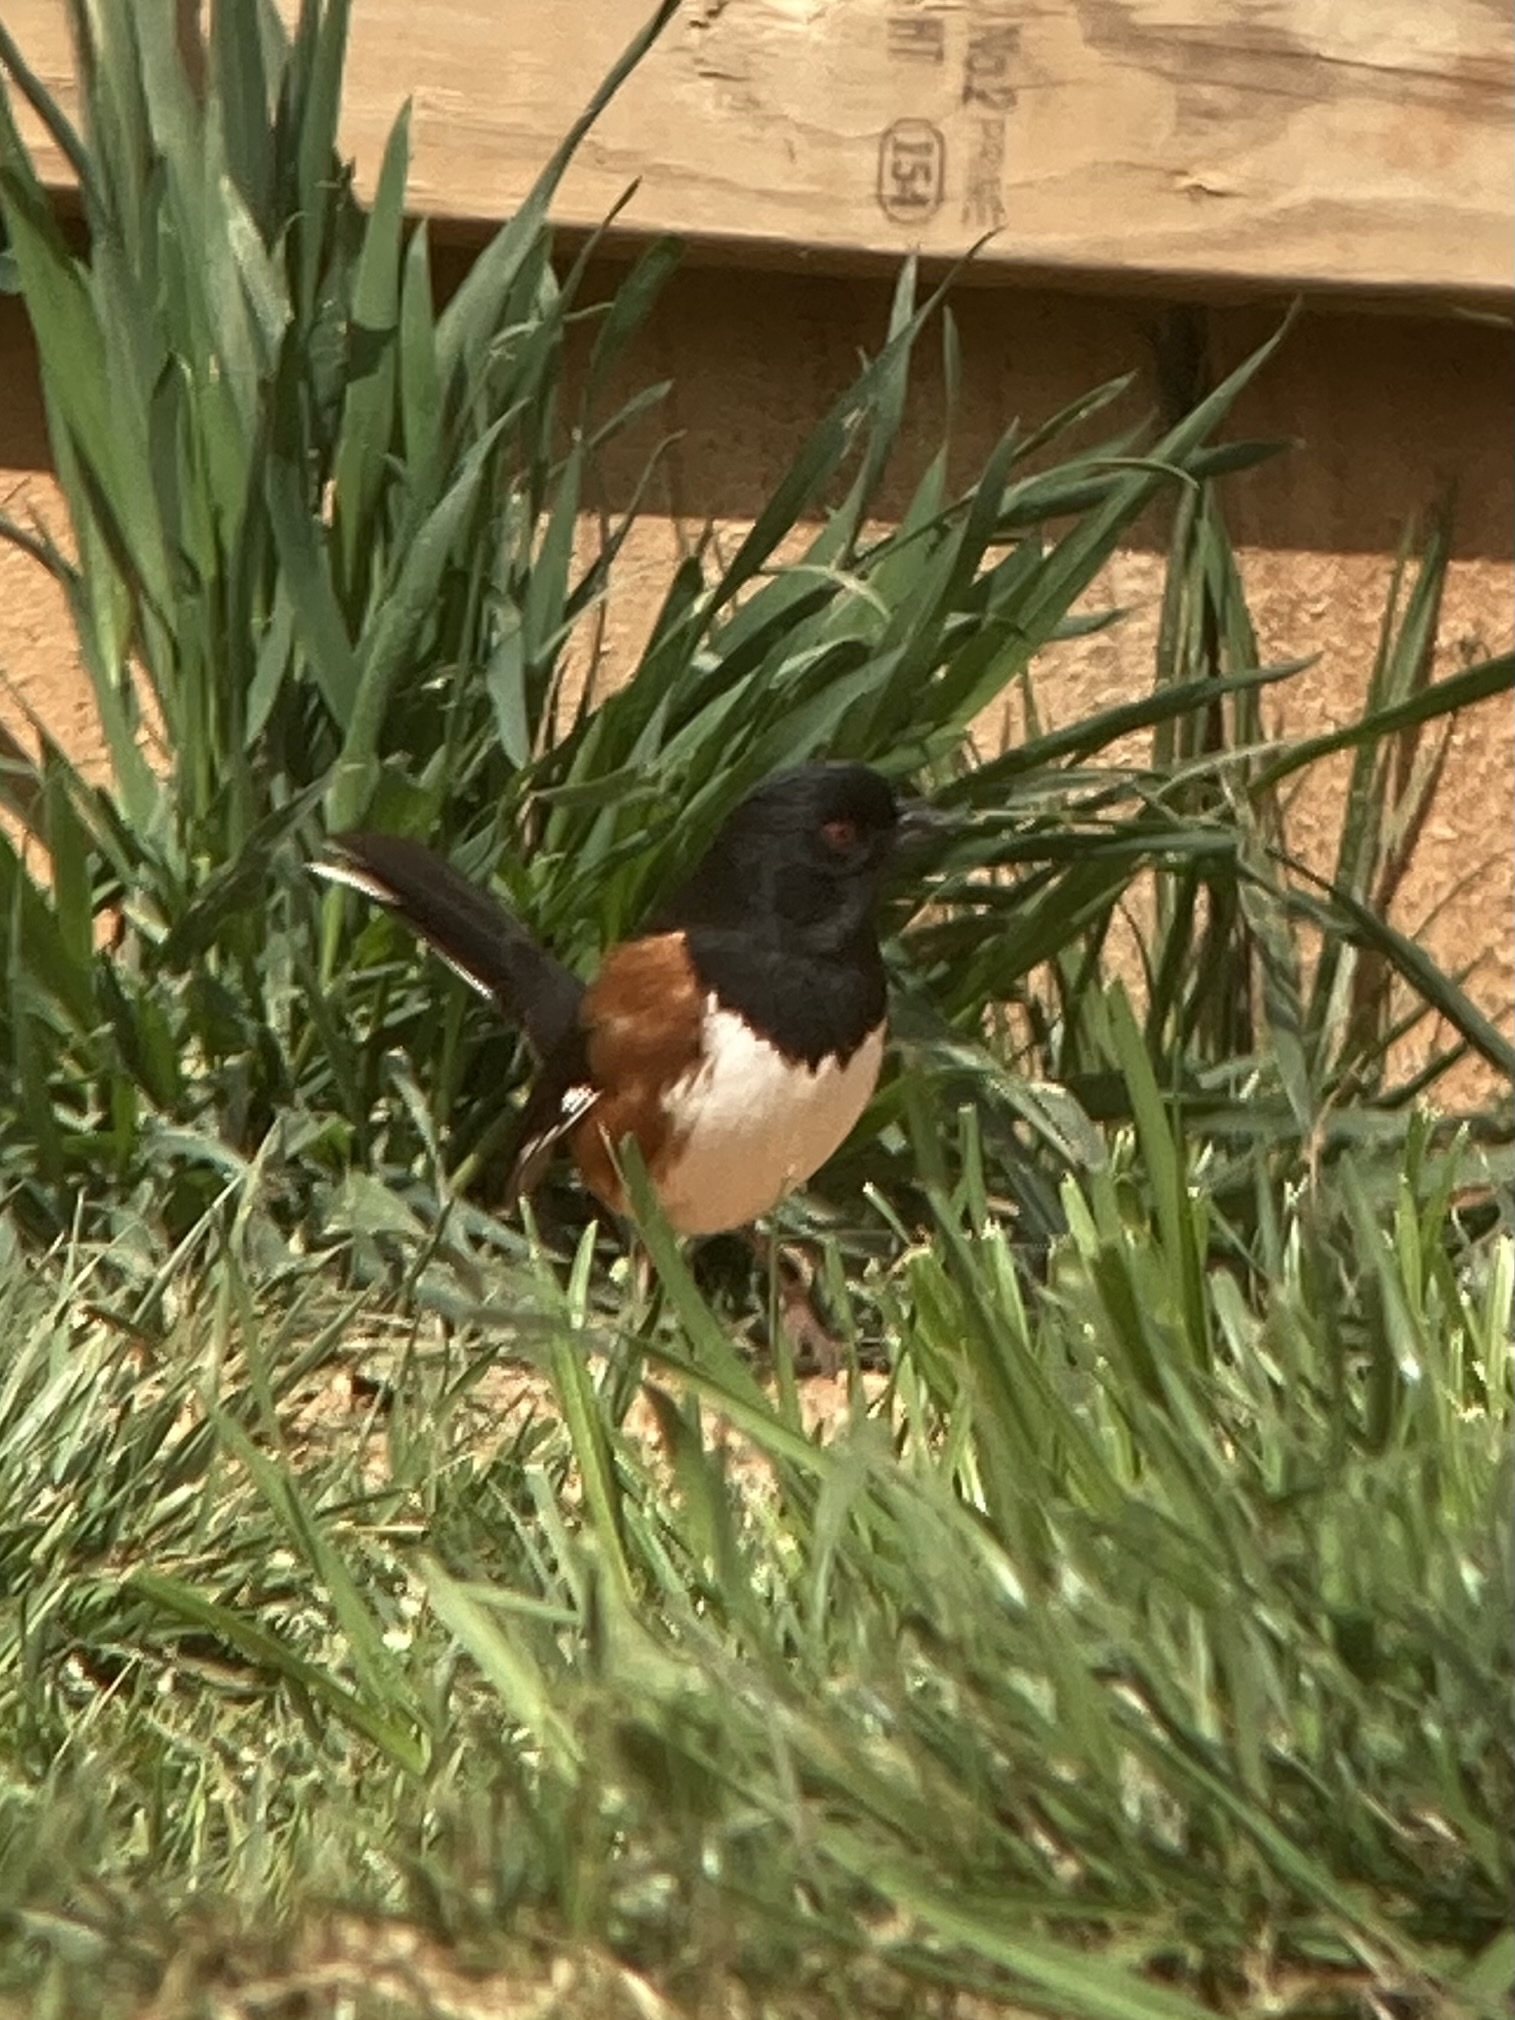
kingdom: Animalia
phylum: Chordata
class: Aves
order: Passeriformes
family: Passerellidae
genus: Pipilo
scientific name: Pipilo erythrophthalmus
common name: Eastern towhee
